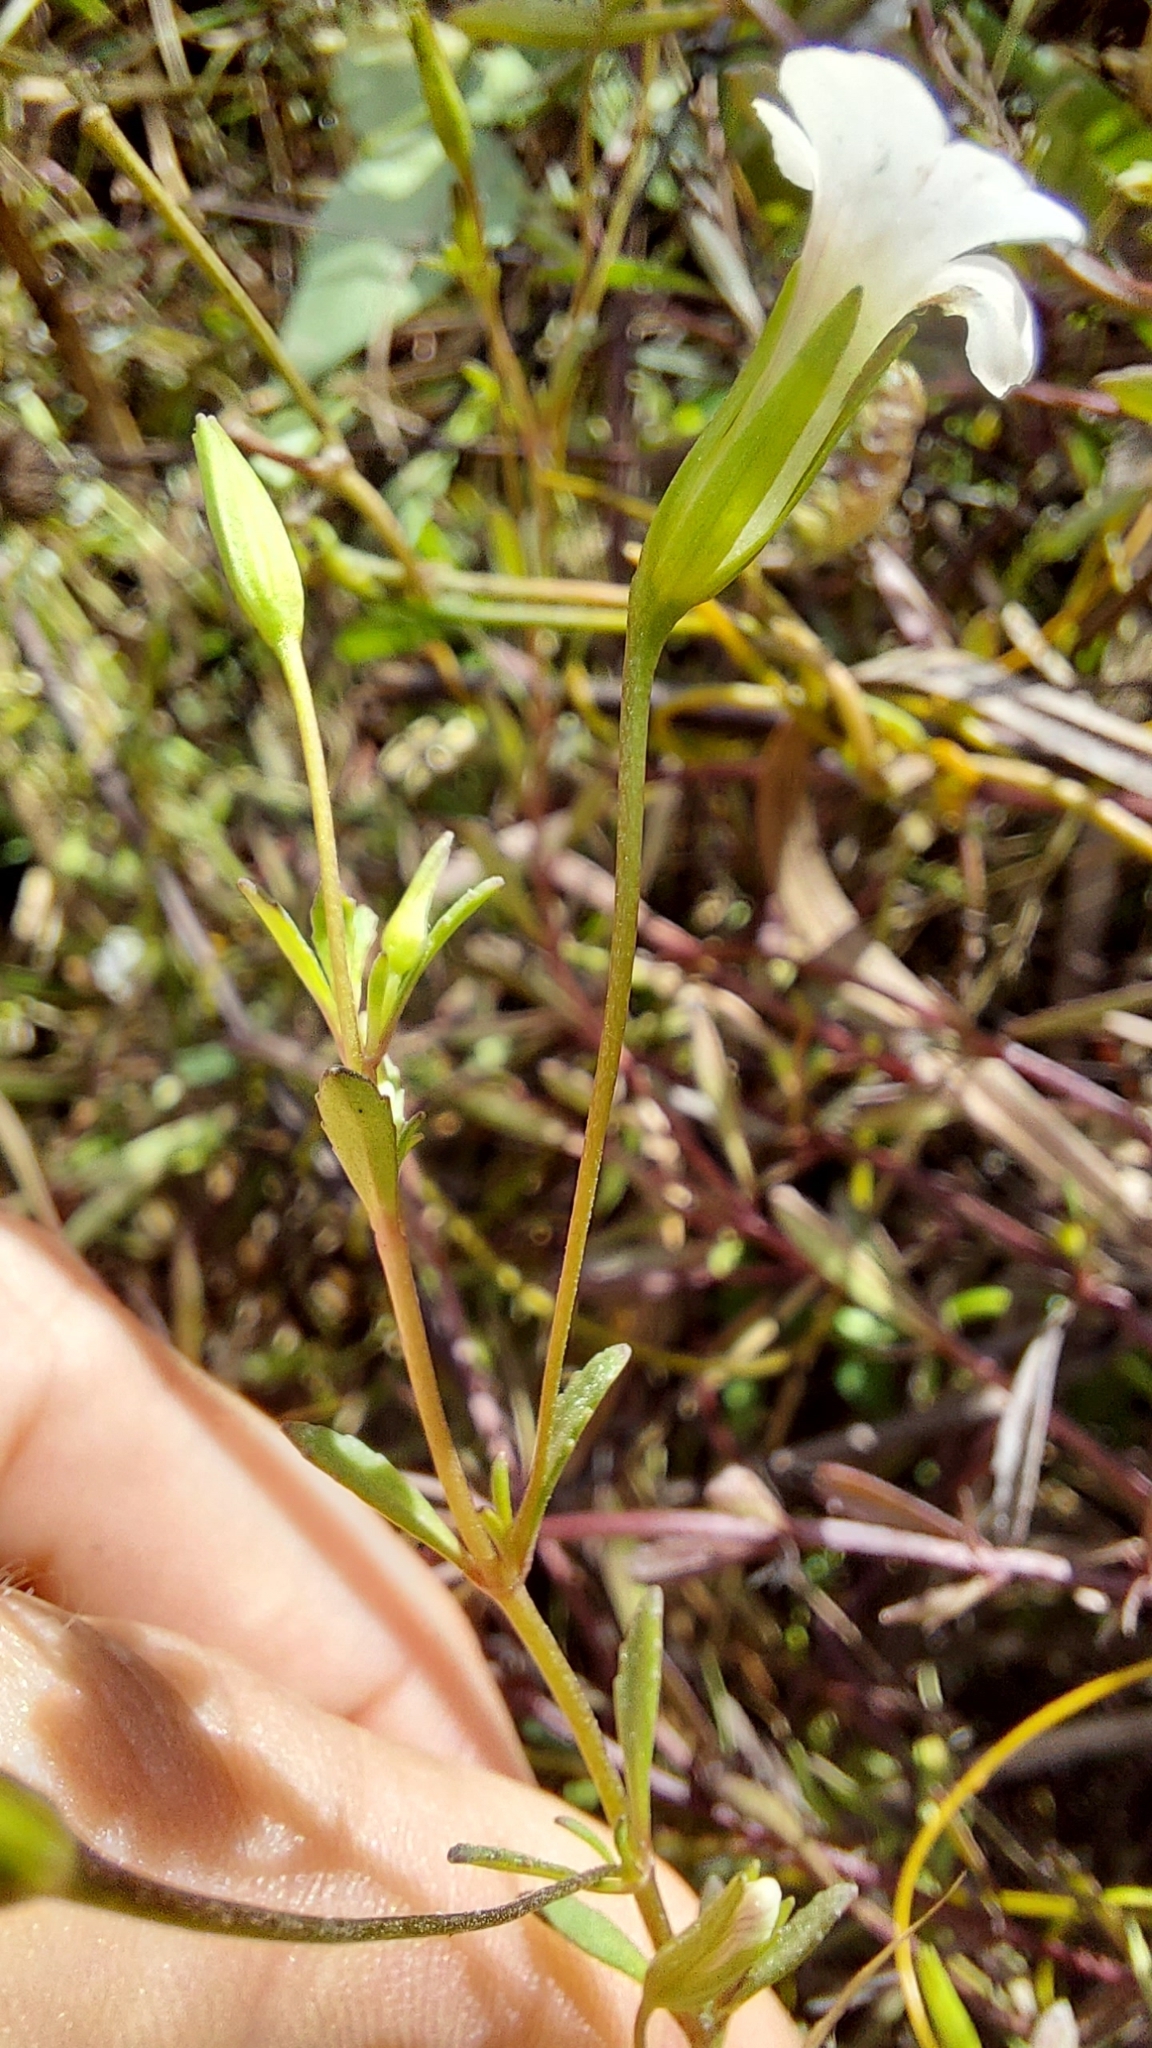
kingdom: Plantae
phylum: Tracheophyta
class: Magnoliopsida
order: Lamiales
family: Plantaginaceae
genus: Mecardonia
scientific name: Mecardonia acuminata
